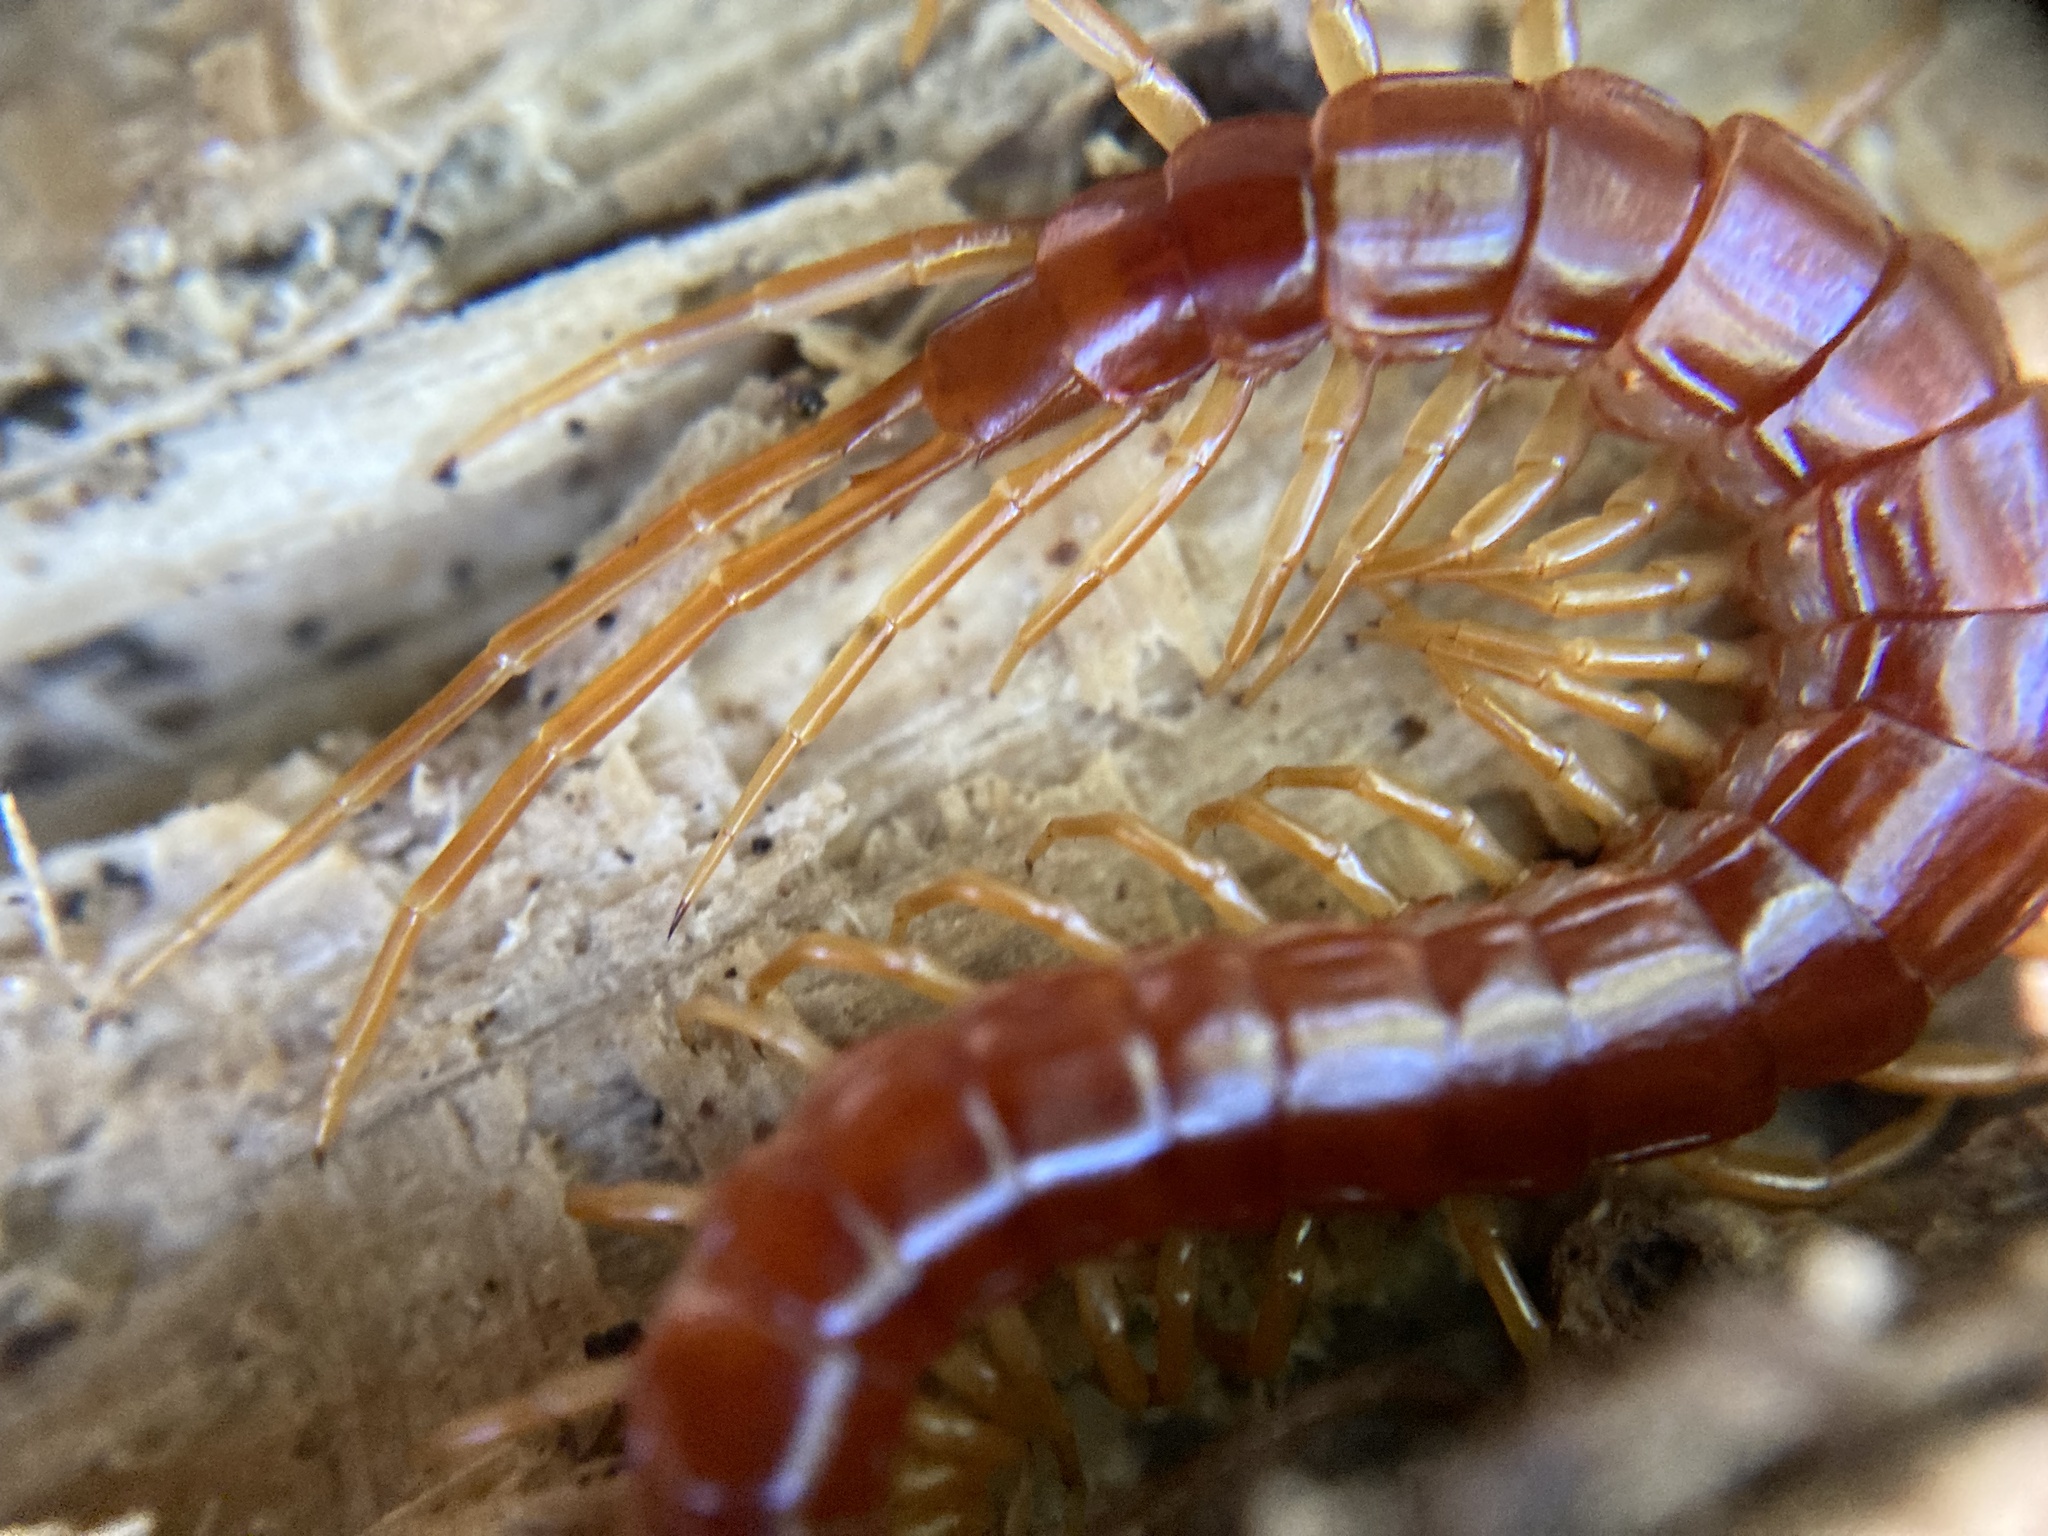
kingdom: Animalia
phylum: Arthropoda
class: Chilopoda
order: Scolopendromorpha
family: Scolopocryptopidae
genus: Scolopocryptops
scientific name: Scolopocryptops sexspinosus
